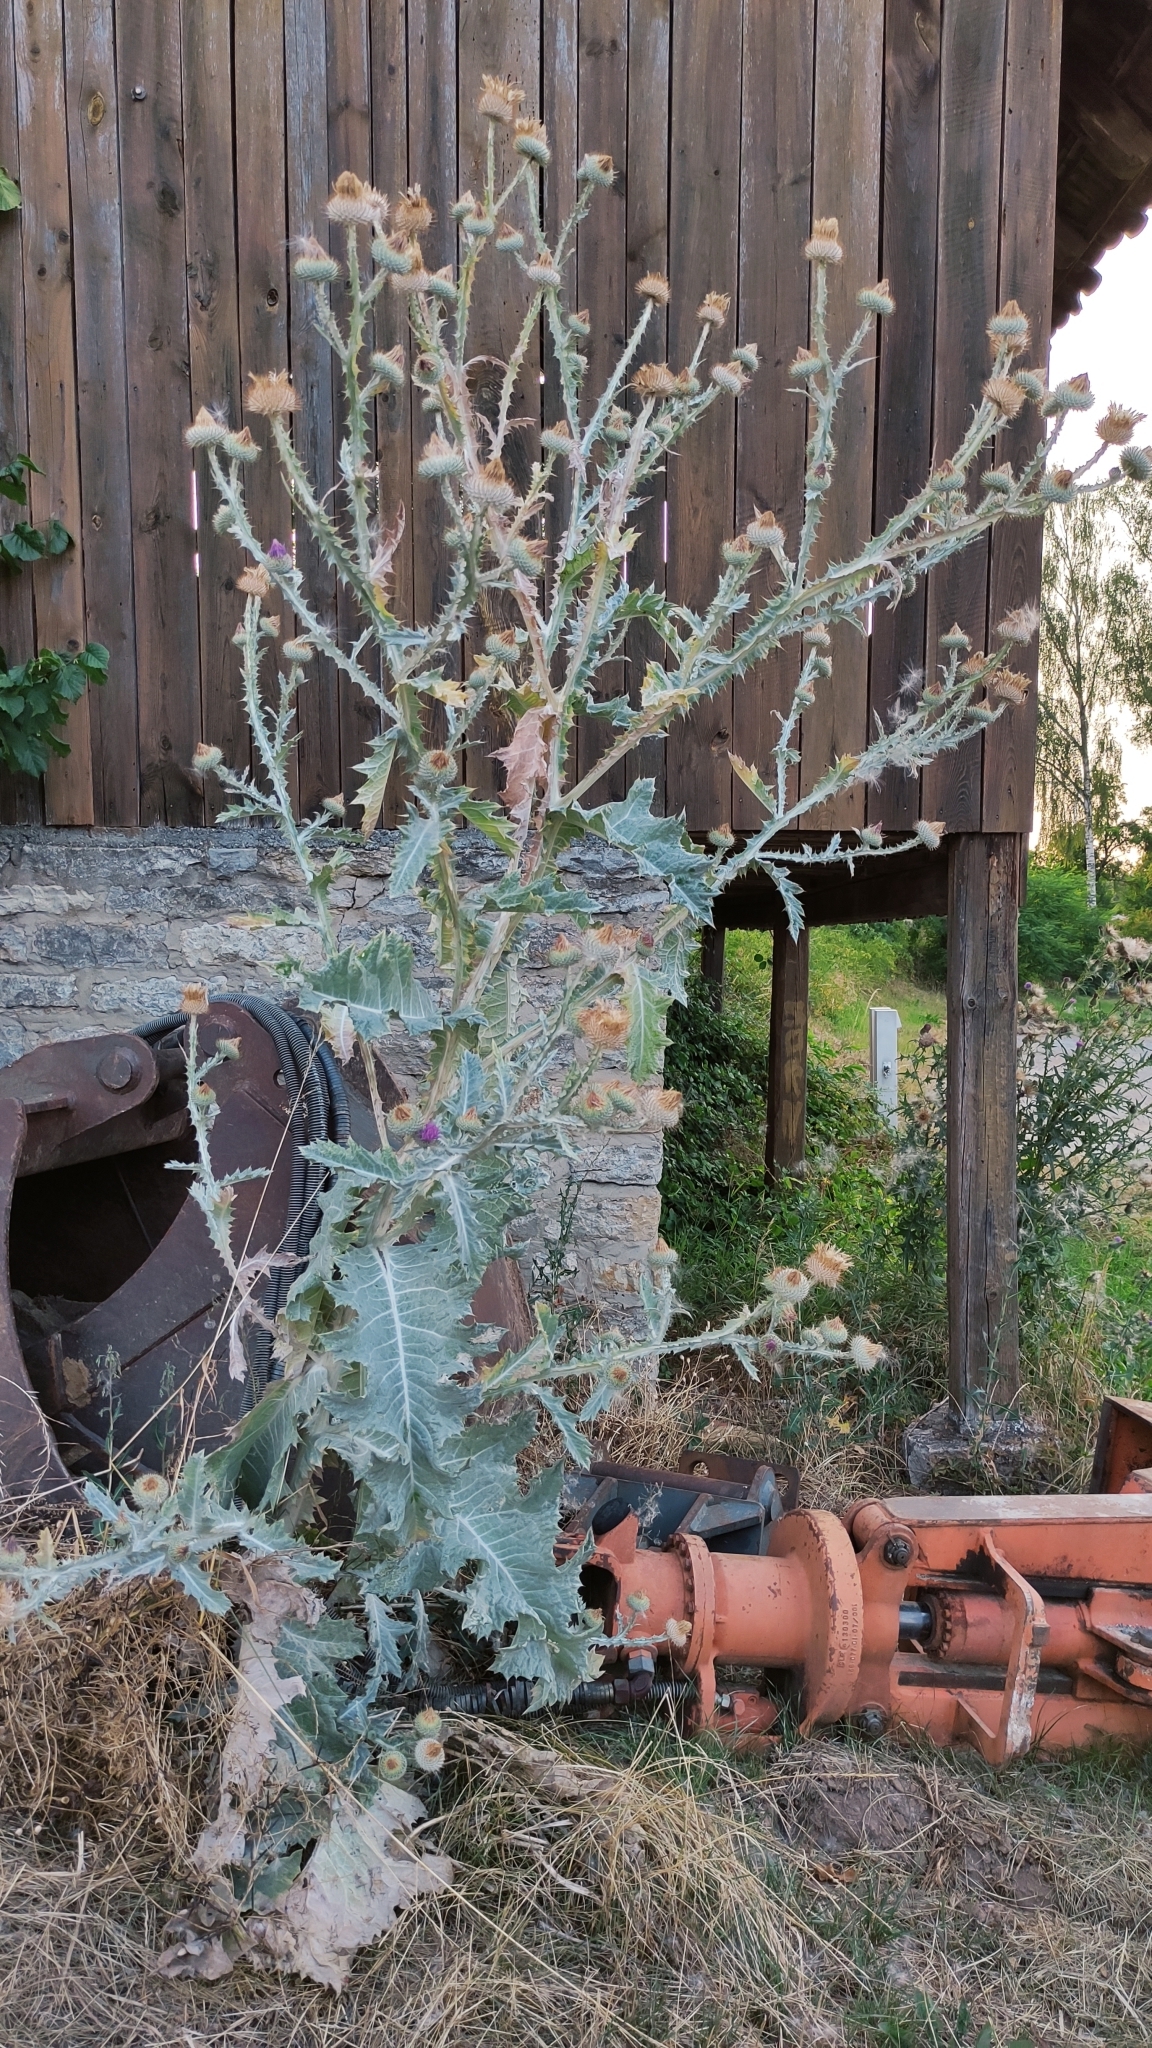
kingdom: Plantae
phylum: Tracheophyta
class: Magnoliopsida
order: Asterales
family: Asteraceae
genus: Onopordum
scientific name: Onopordum acanthium
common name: Scotch thistle
